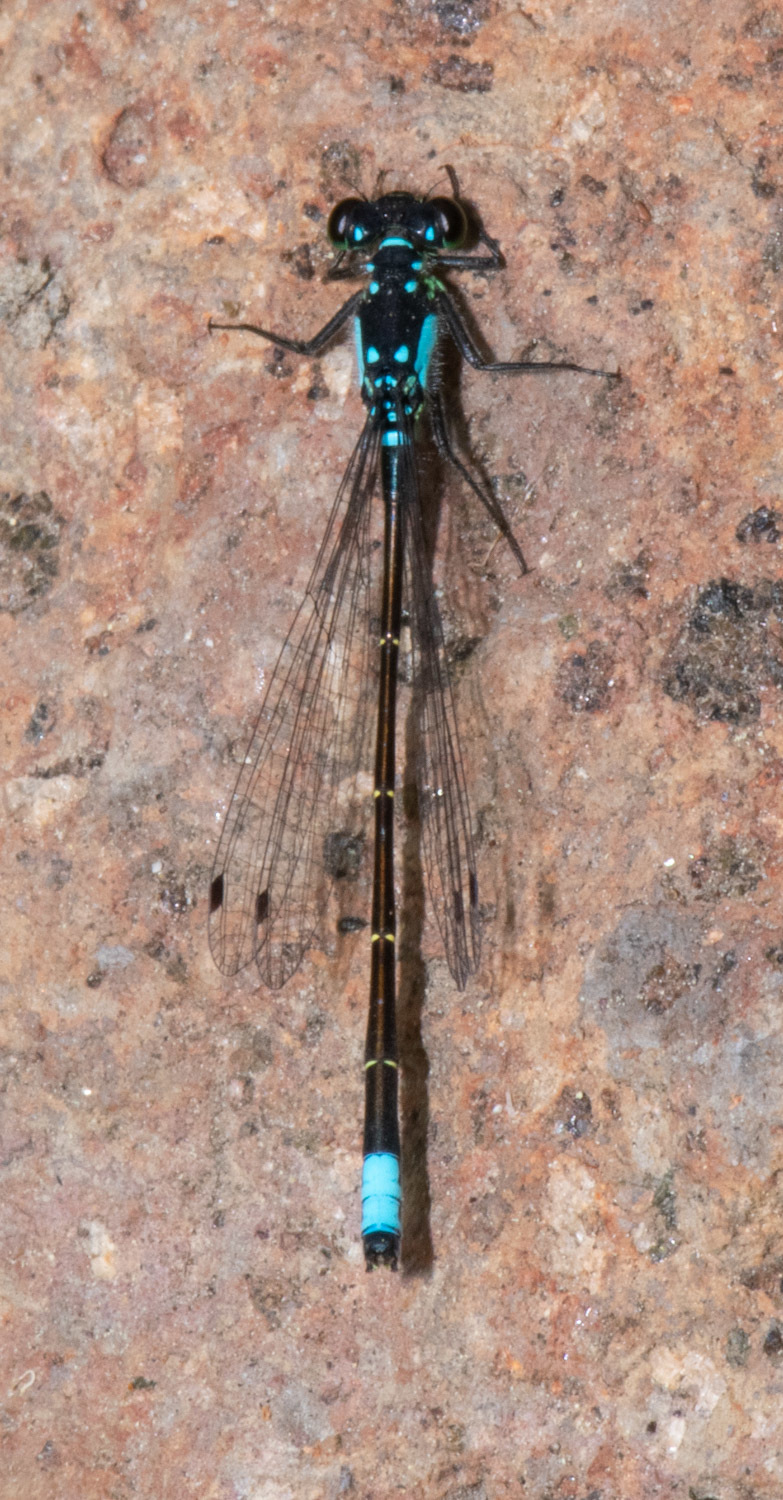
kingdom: Animalia
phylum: Arthropoda
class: Insecta
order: Odonata
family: Coenagrionidae
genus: Ischnura
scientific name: Ischnura cervula
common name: Pacific forktail
